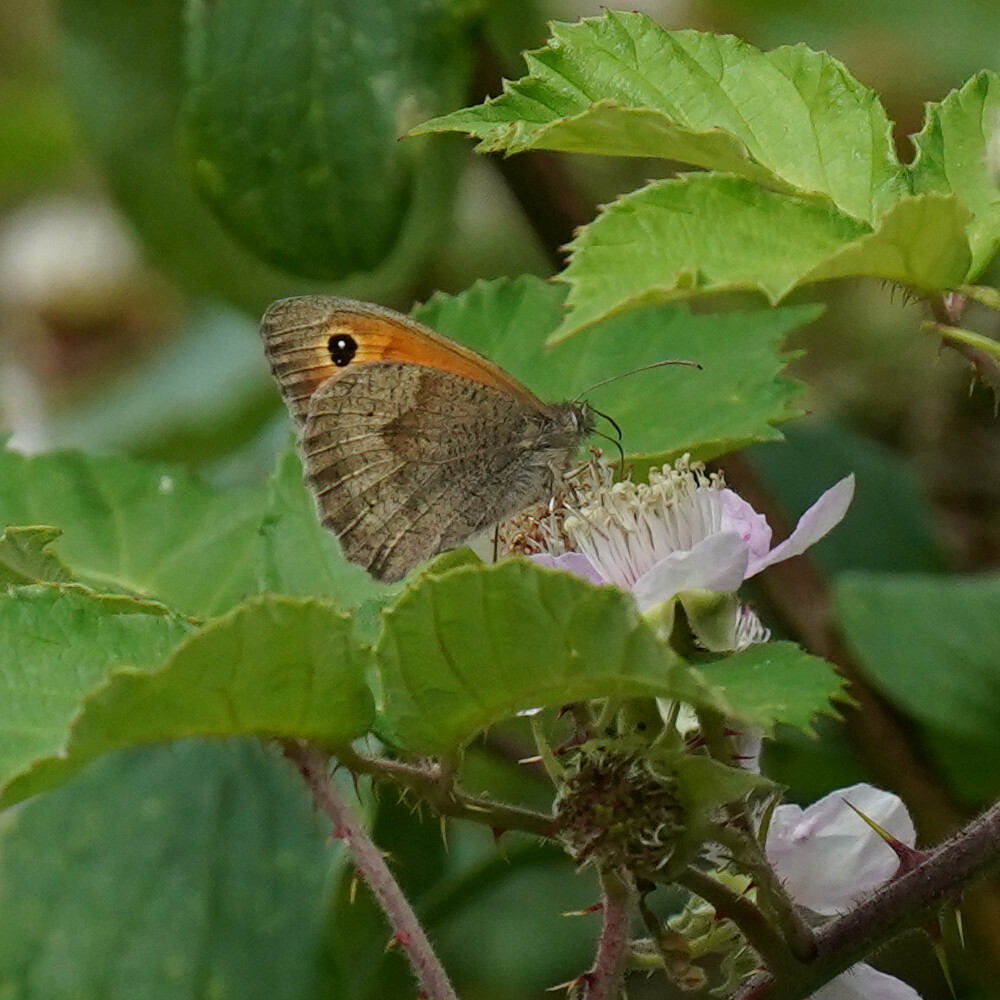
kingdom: Animalia
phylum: Arthropoda
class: Insecta
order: Lepidoptera
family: Nymphalidae
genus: Maniola
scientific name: Maniola jurtina
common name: Meadow brown
